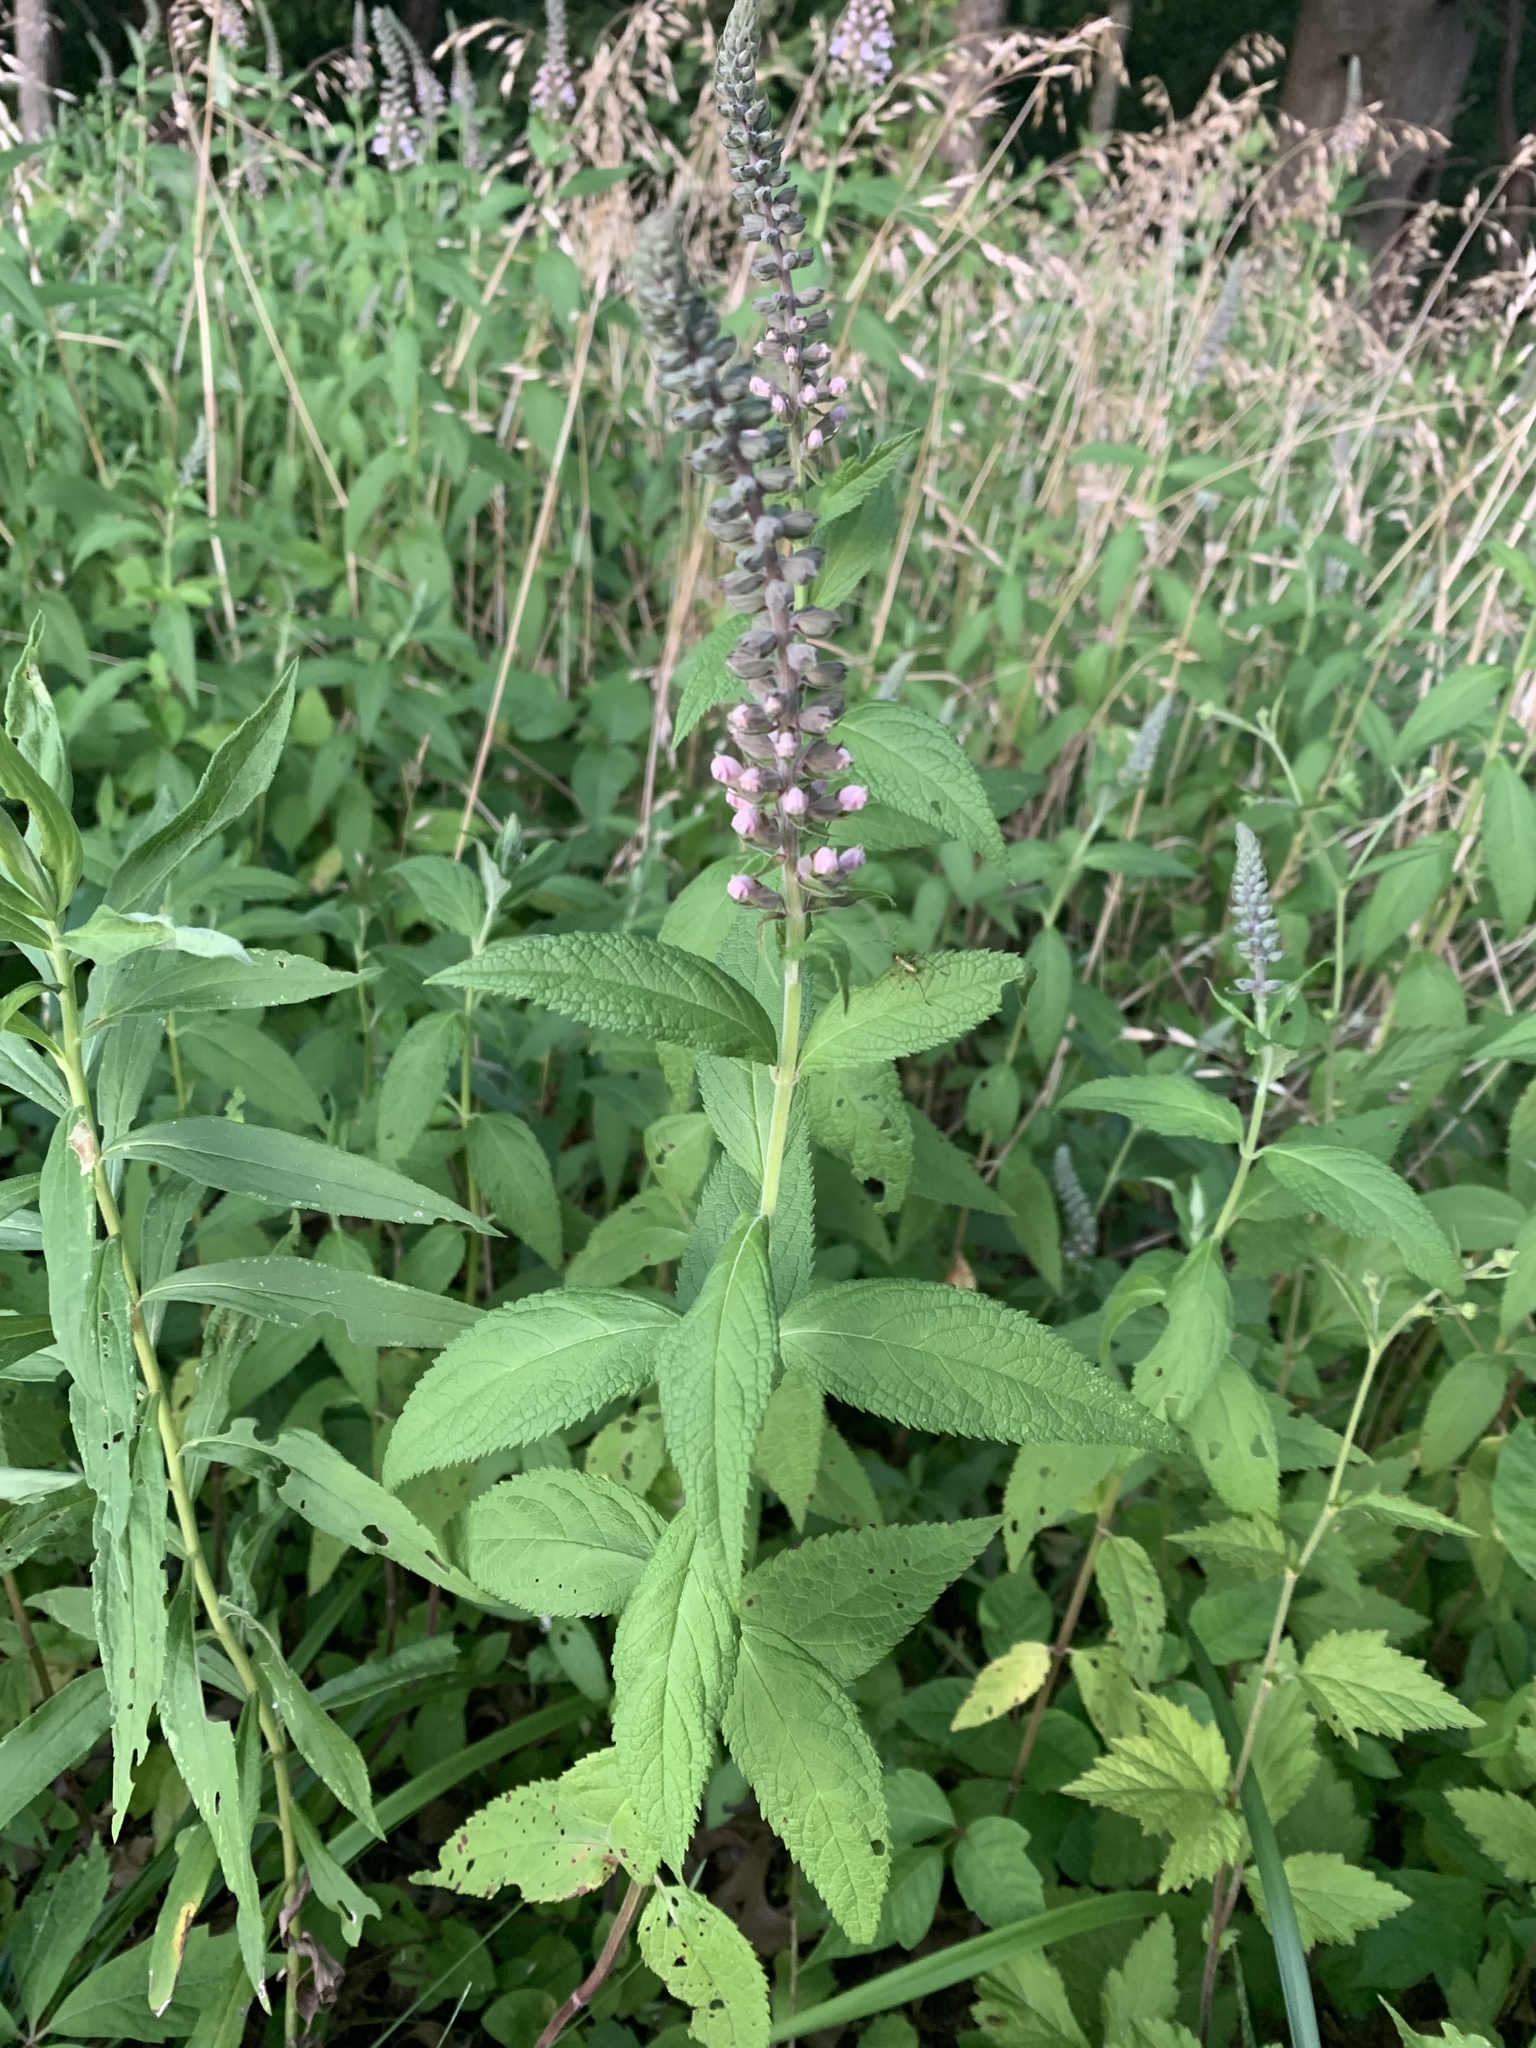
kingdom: Plantae
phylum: Tracheophyta
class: Magnoliopsida
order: Lamiales
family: Lamiaceae
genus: Teucrium
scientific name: Teucrium canadense
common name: American germander
